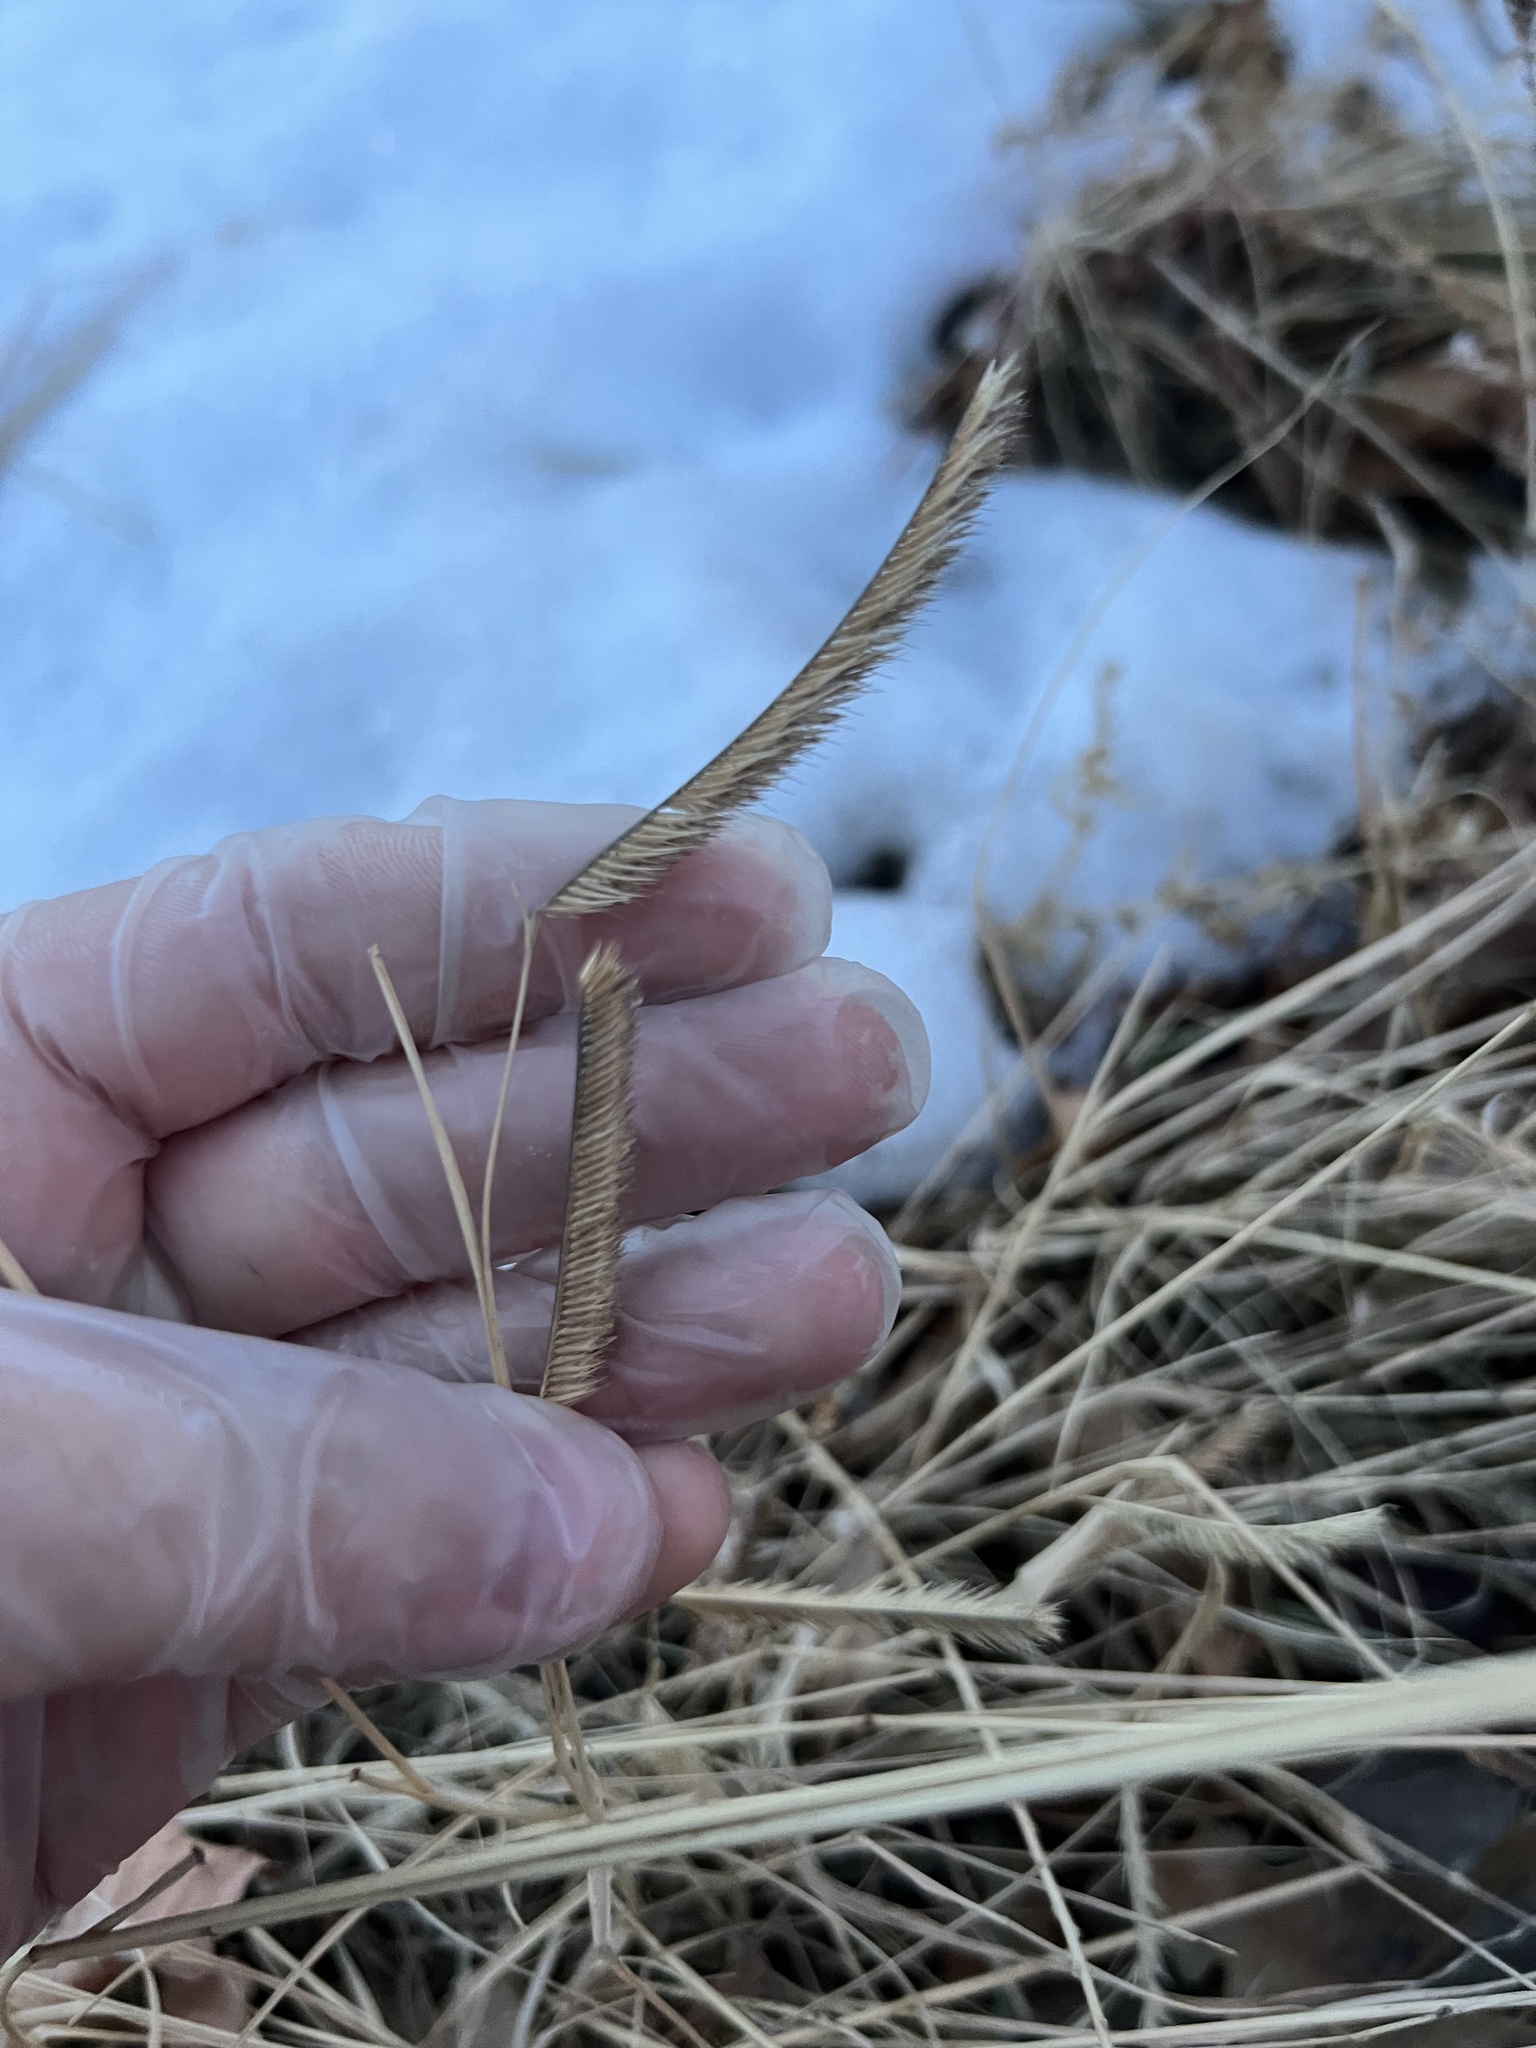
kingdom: Plantae
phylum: Tracheophyta
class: Liliopsida
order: Poales
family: Poaceae
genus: Bouteloua
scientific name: Bouteloua gracilis
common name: Blue grama
